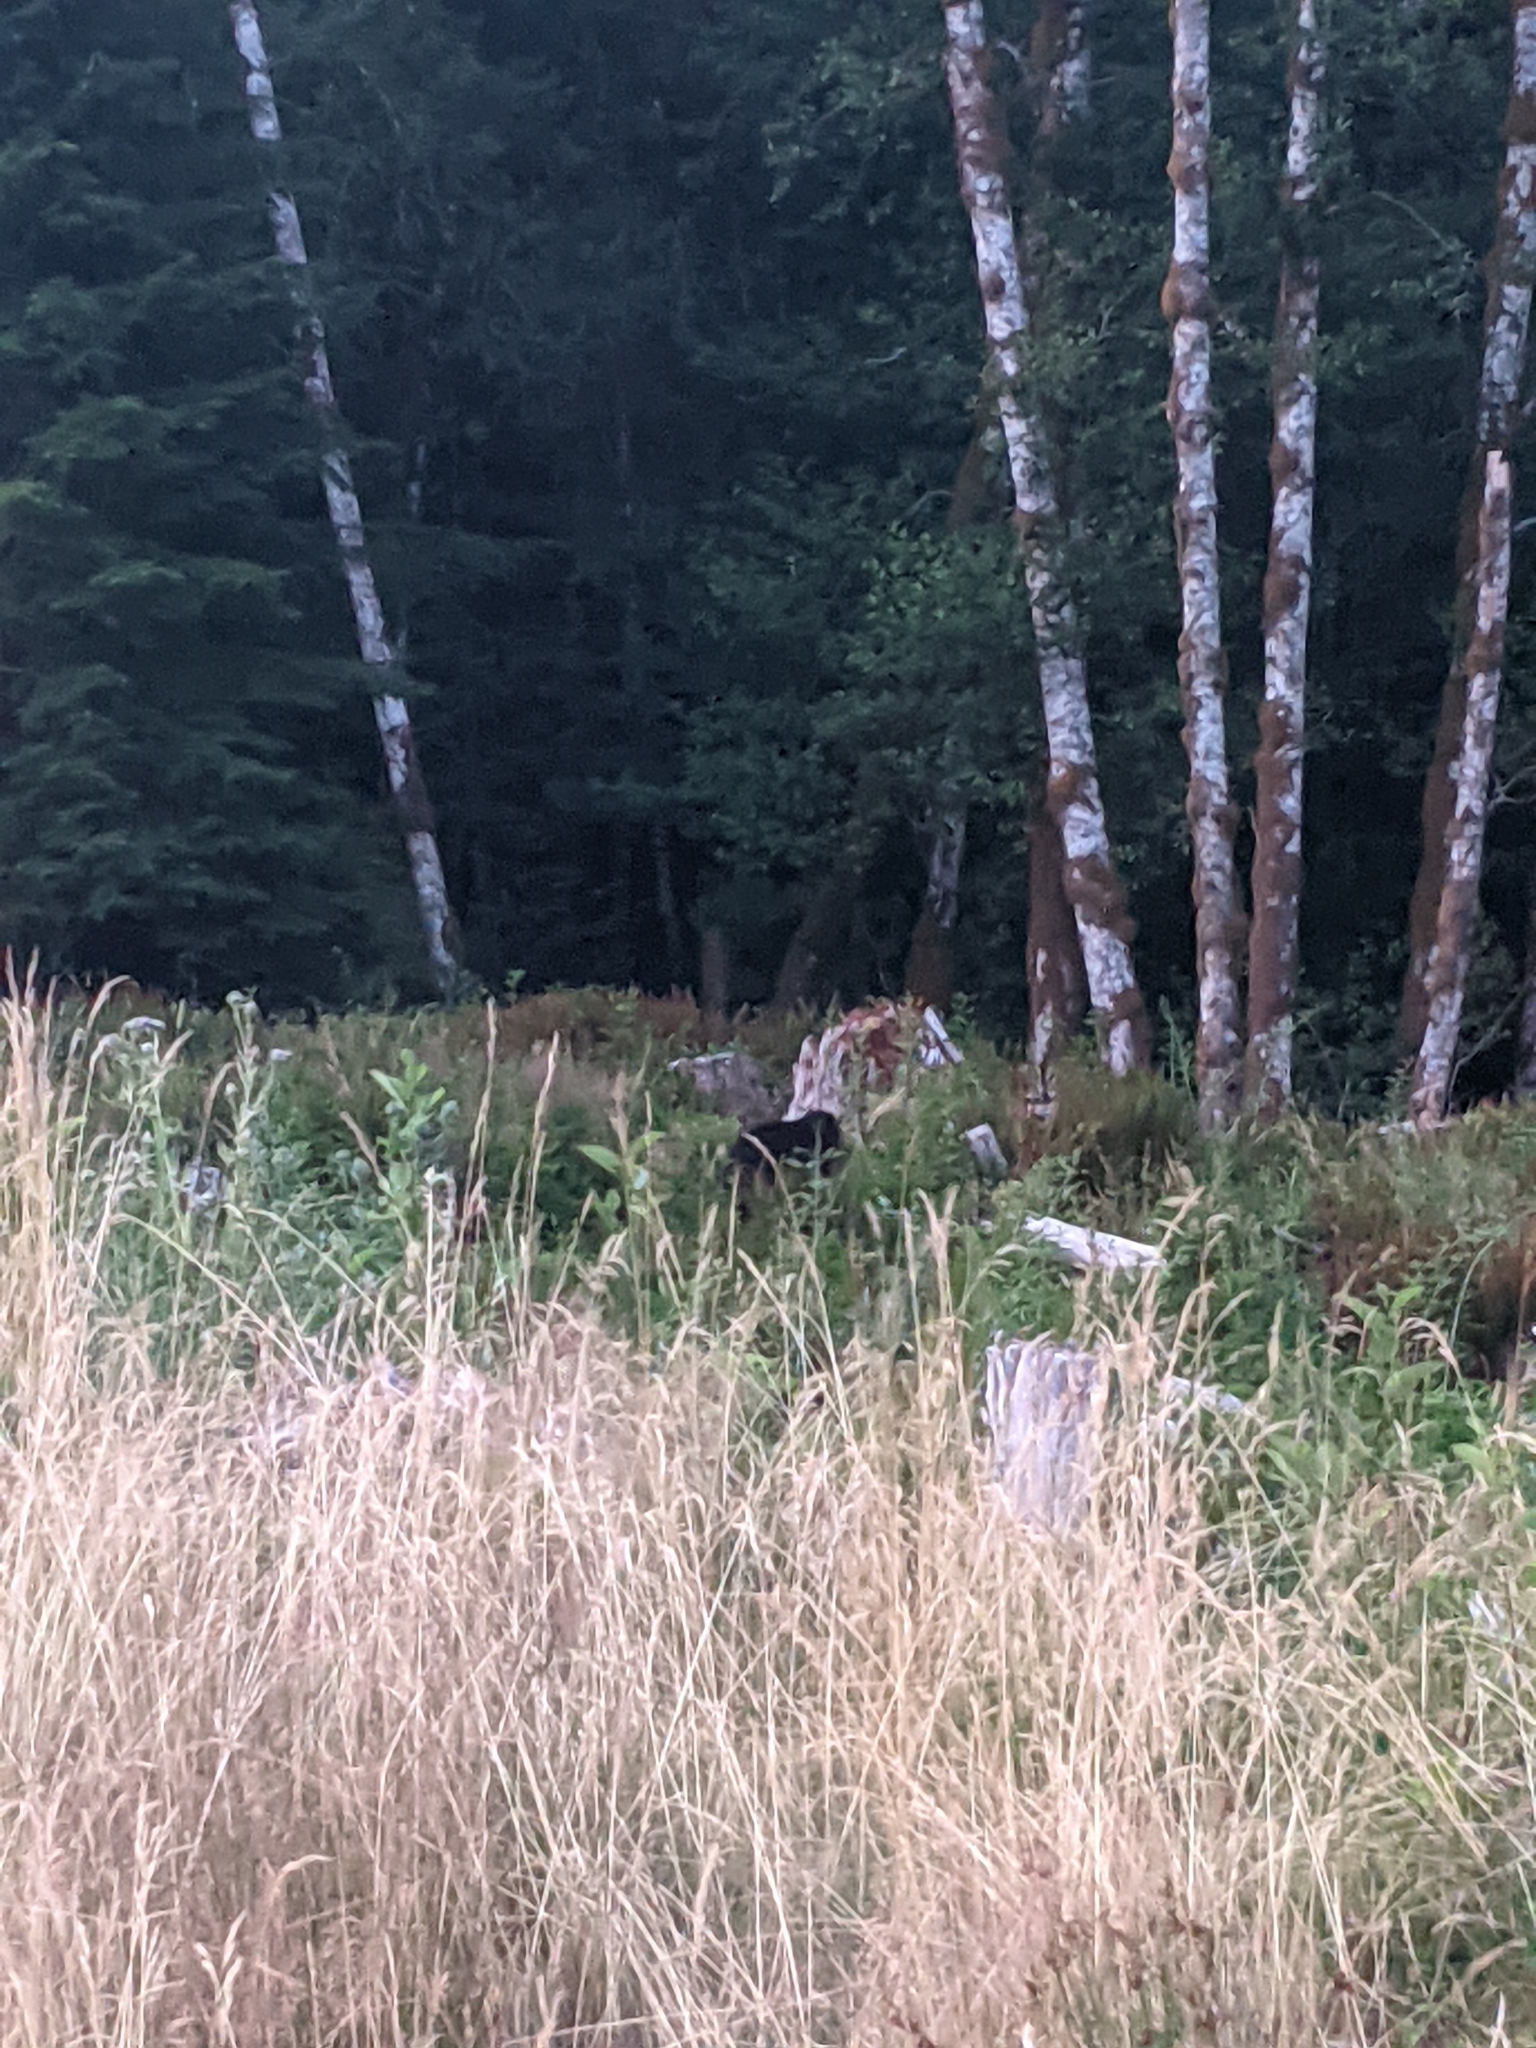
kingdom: Animalia
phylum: Chordata
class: Mammalia
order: Carnivora
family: Ursidae
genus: Ursus
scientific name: Ursus americanus
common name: American black bear
